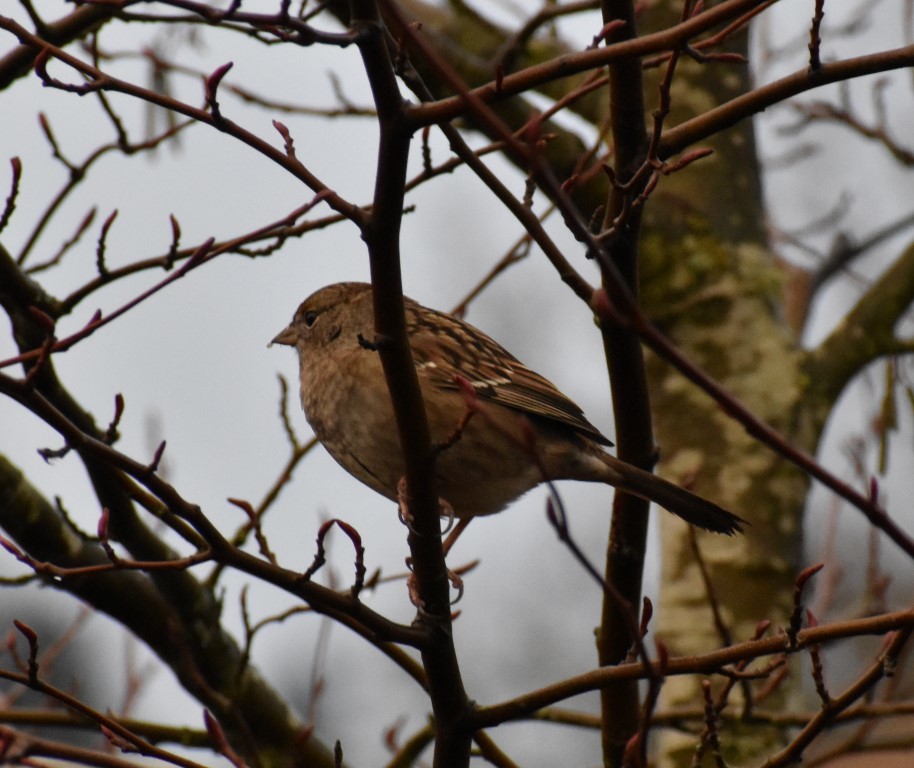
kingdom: Animalia
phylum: Chordata
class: Aves
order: Passeriformes
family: Passerellidae
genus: Zonotrichia
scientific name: Zonotrichia atricapilla
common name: Golden-crowned sparrow
